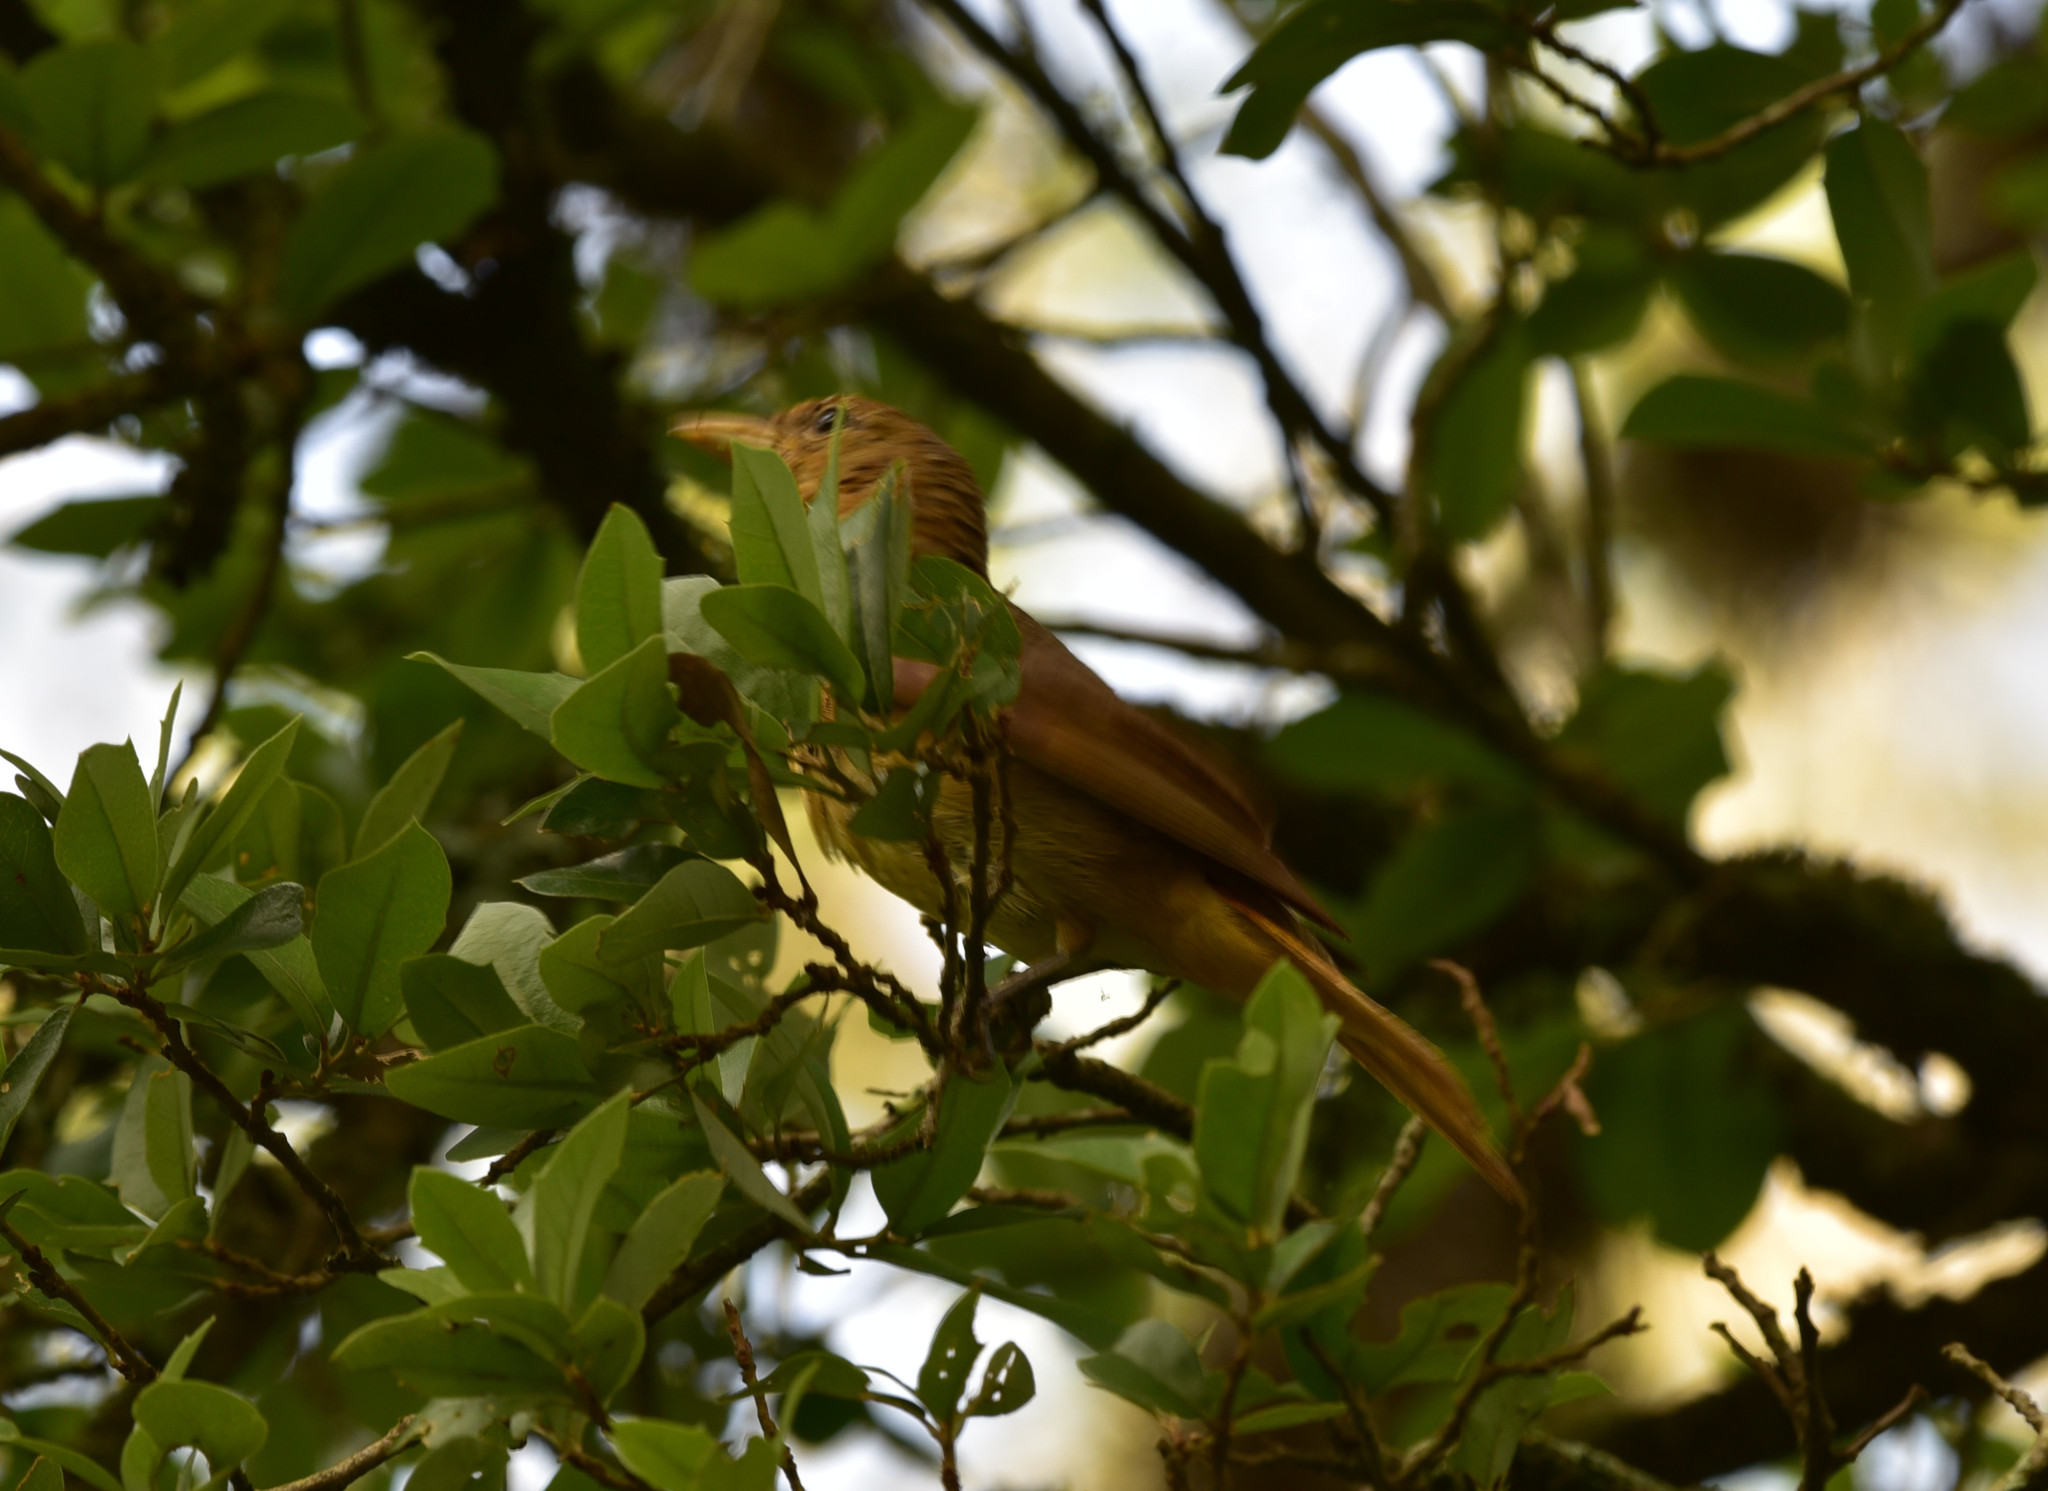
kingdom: Animalia
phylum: Chordata
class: Aves
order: Passeriformes
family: Cardinalidae
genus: Piranga
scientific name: Piranga rubra
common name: Summer tanager
